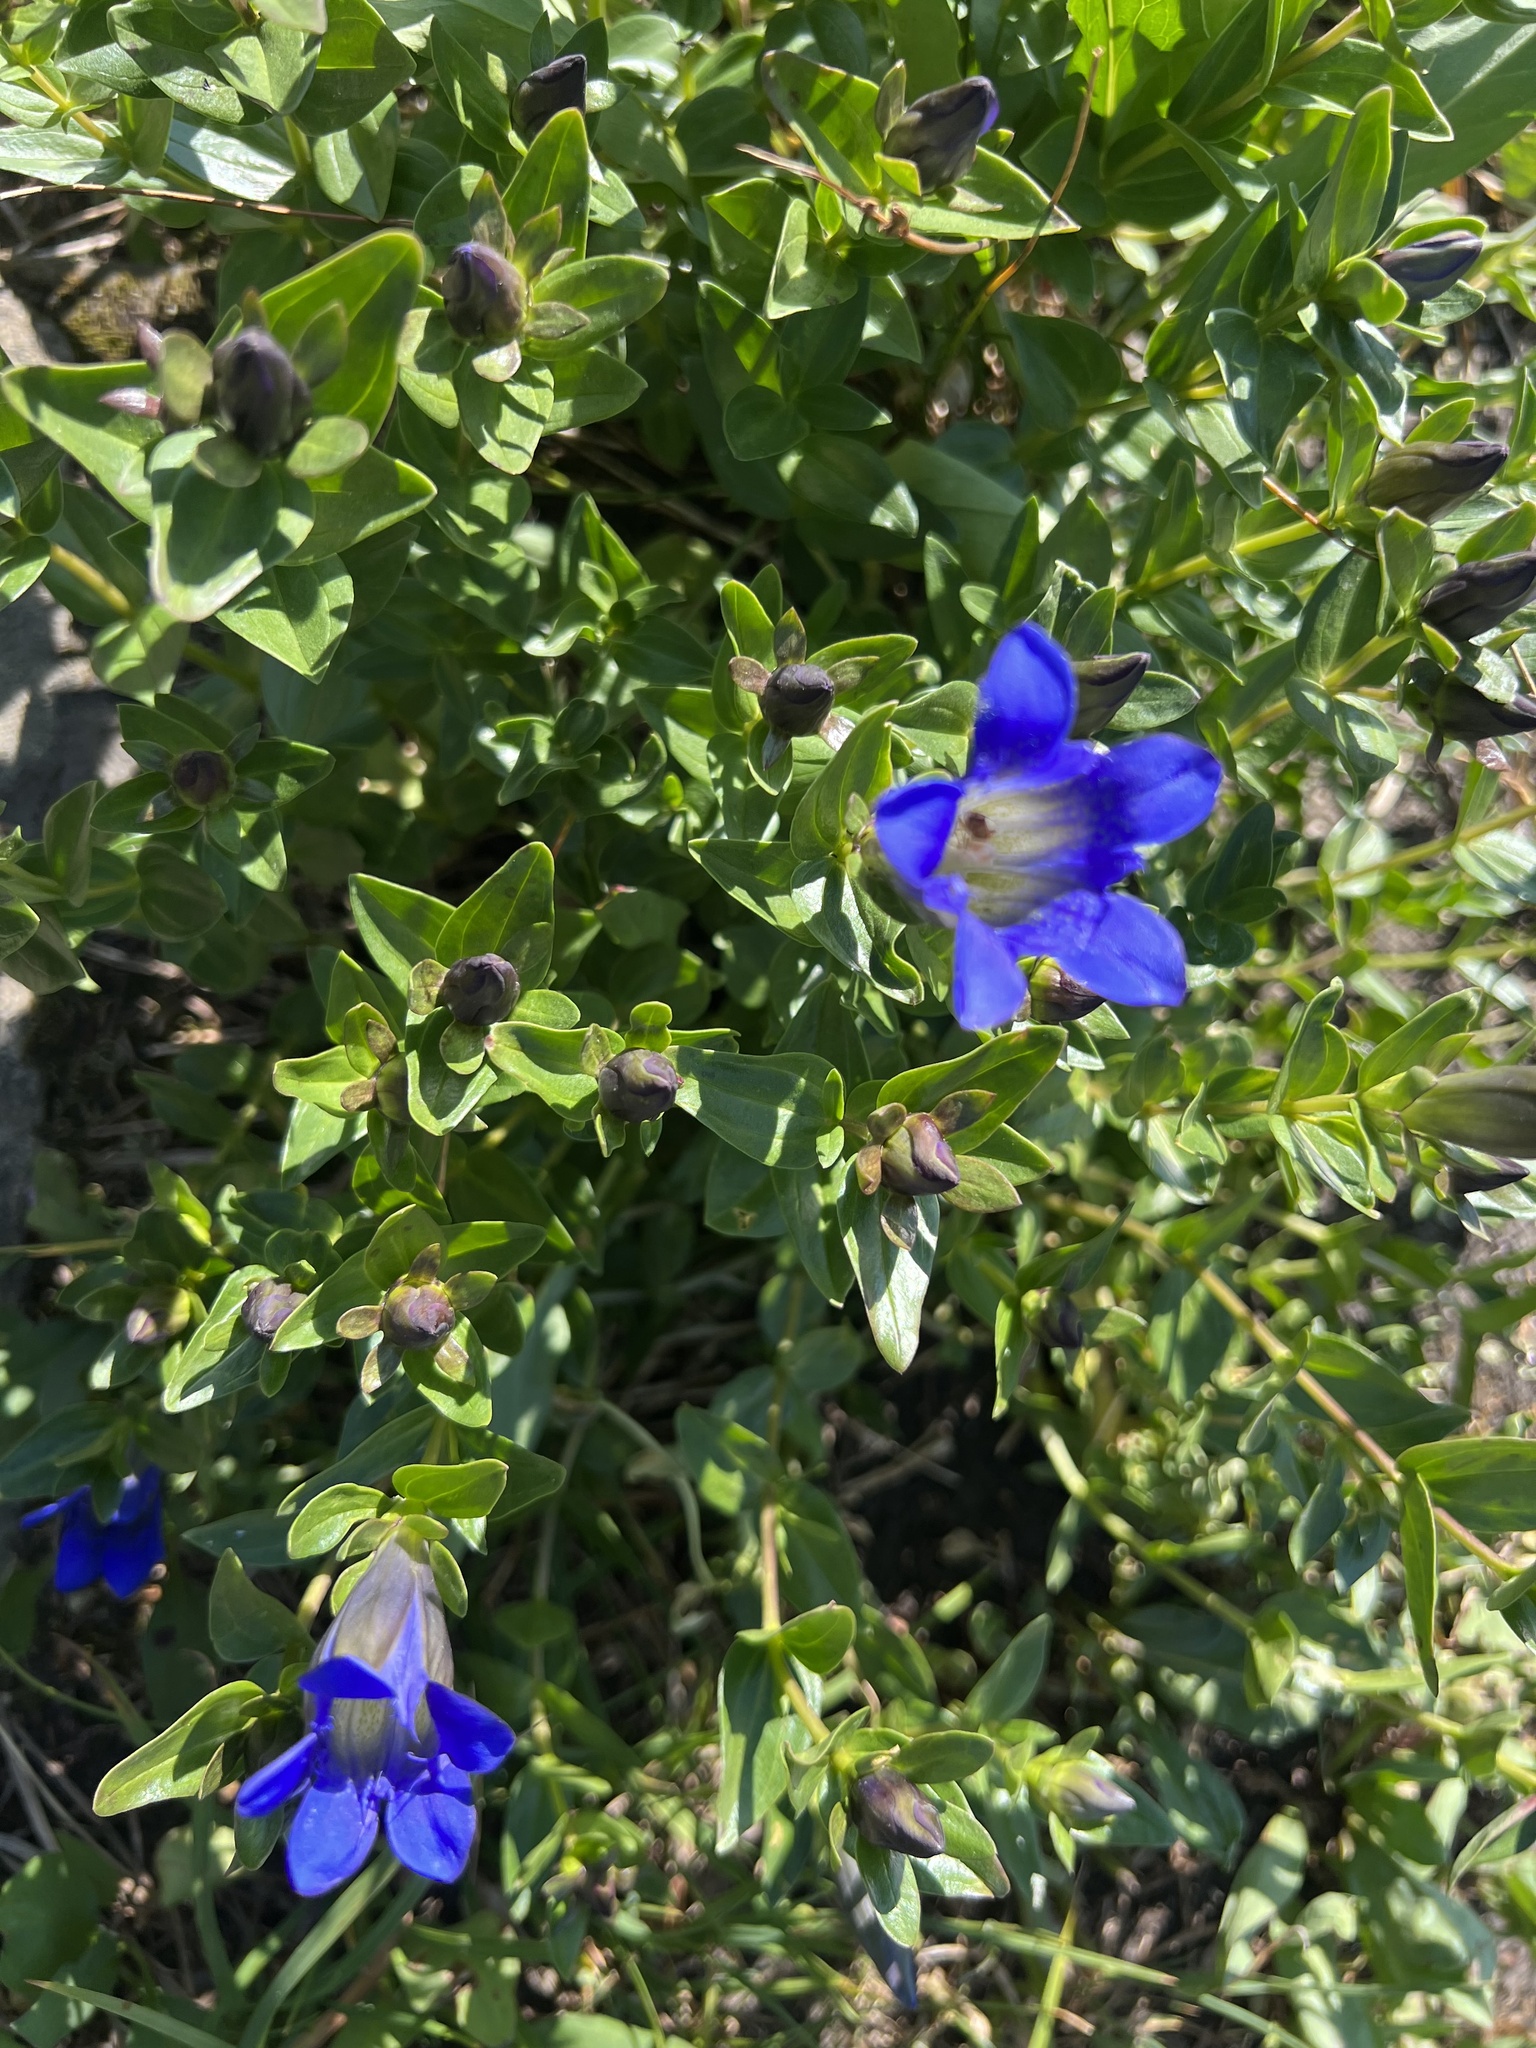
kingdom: Plantae
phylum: Tracheophyta
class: Magnoliopsida
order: Gentianales
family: Gentianaceae
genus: Gentiana
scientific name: Gentiana calycosa
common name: Rainier pleated gentian
